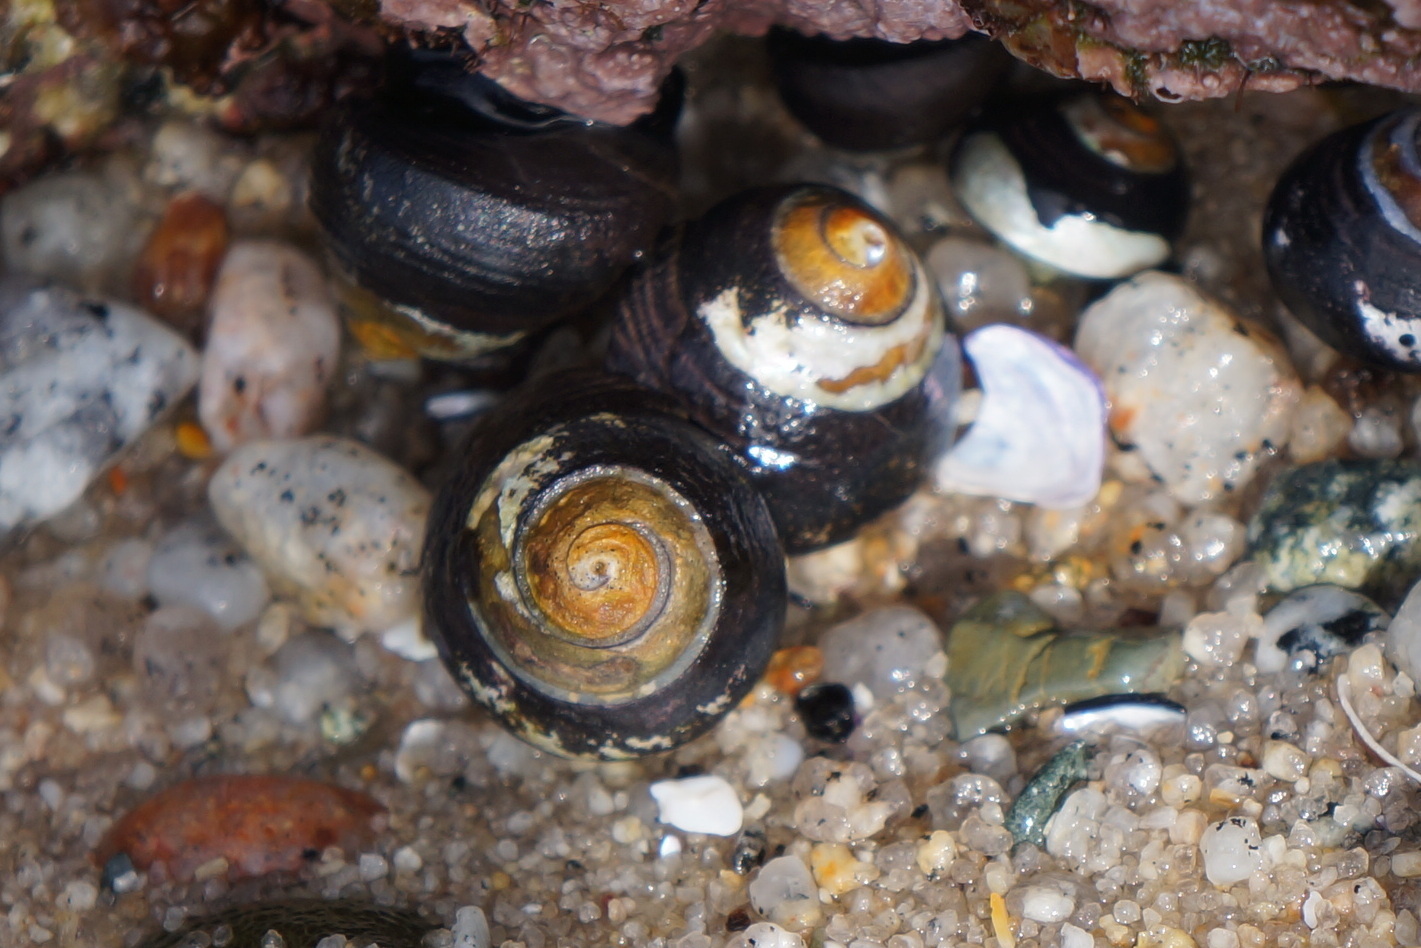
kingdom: Animalia
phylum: Mollusca
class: Gastropoda
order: Trochida
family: Tegulidae
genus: Tegula
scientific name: Tegula funebralis
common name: Black tegula
